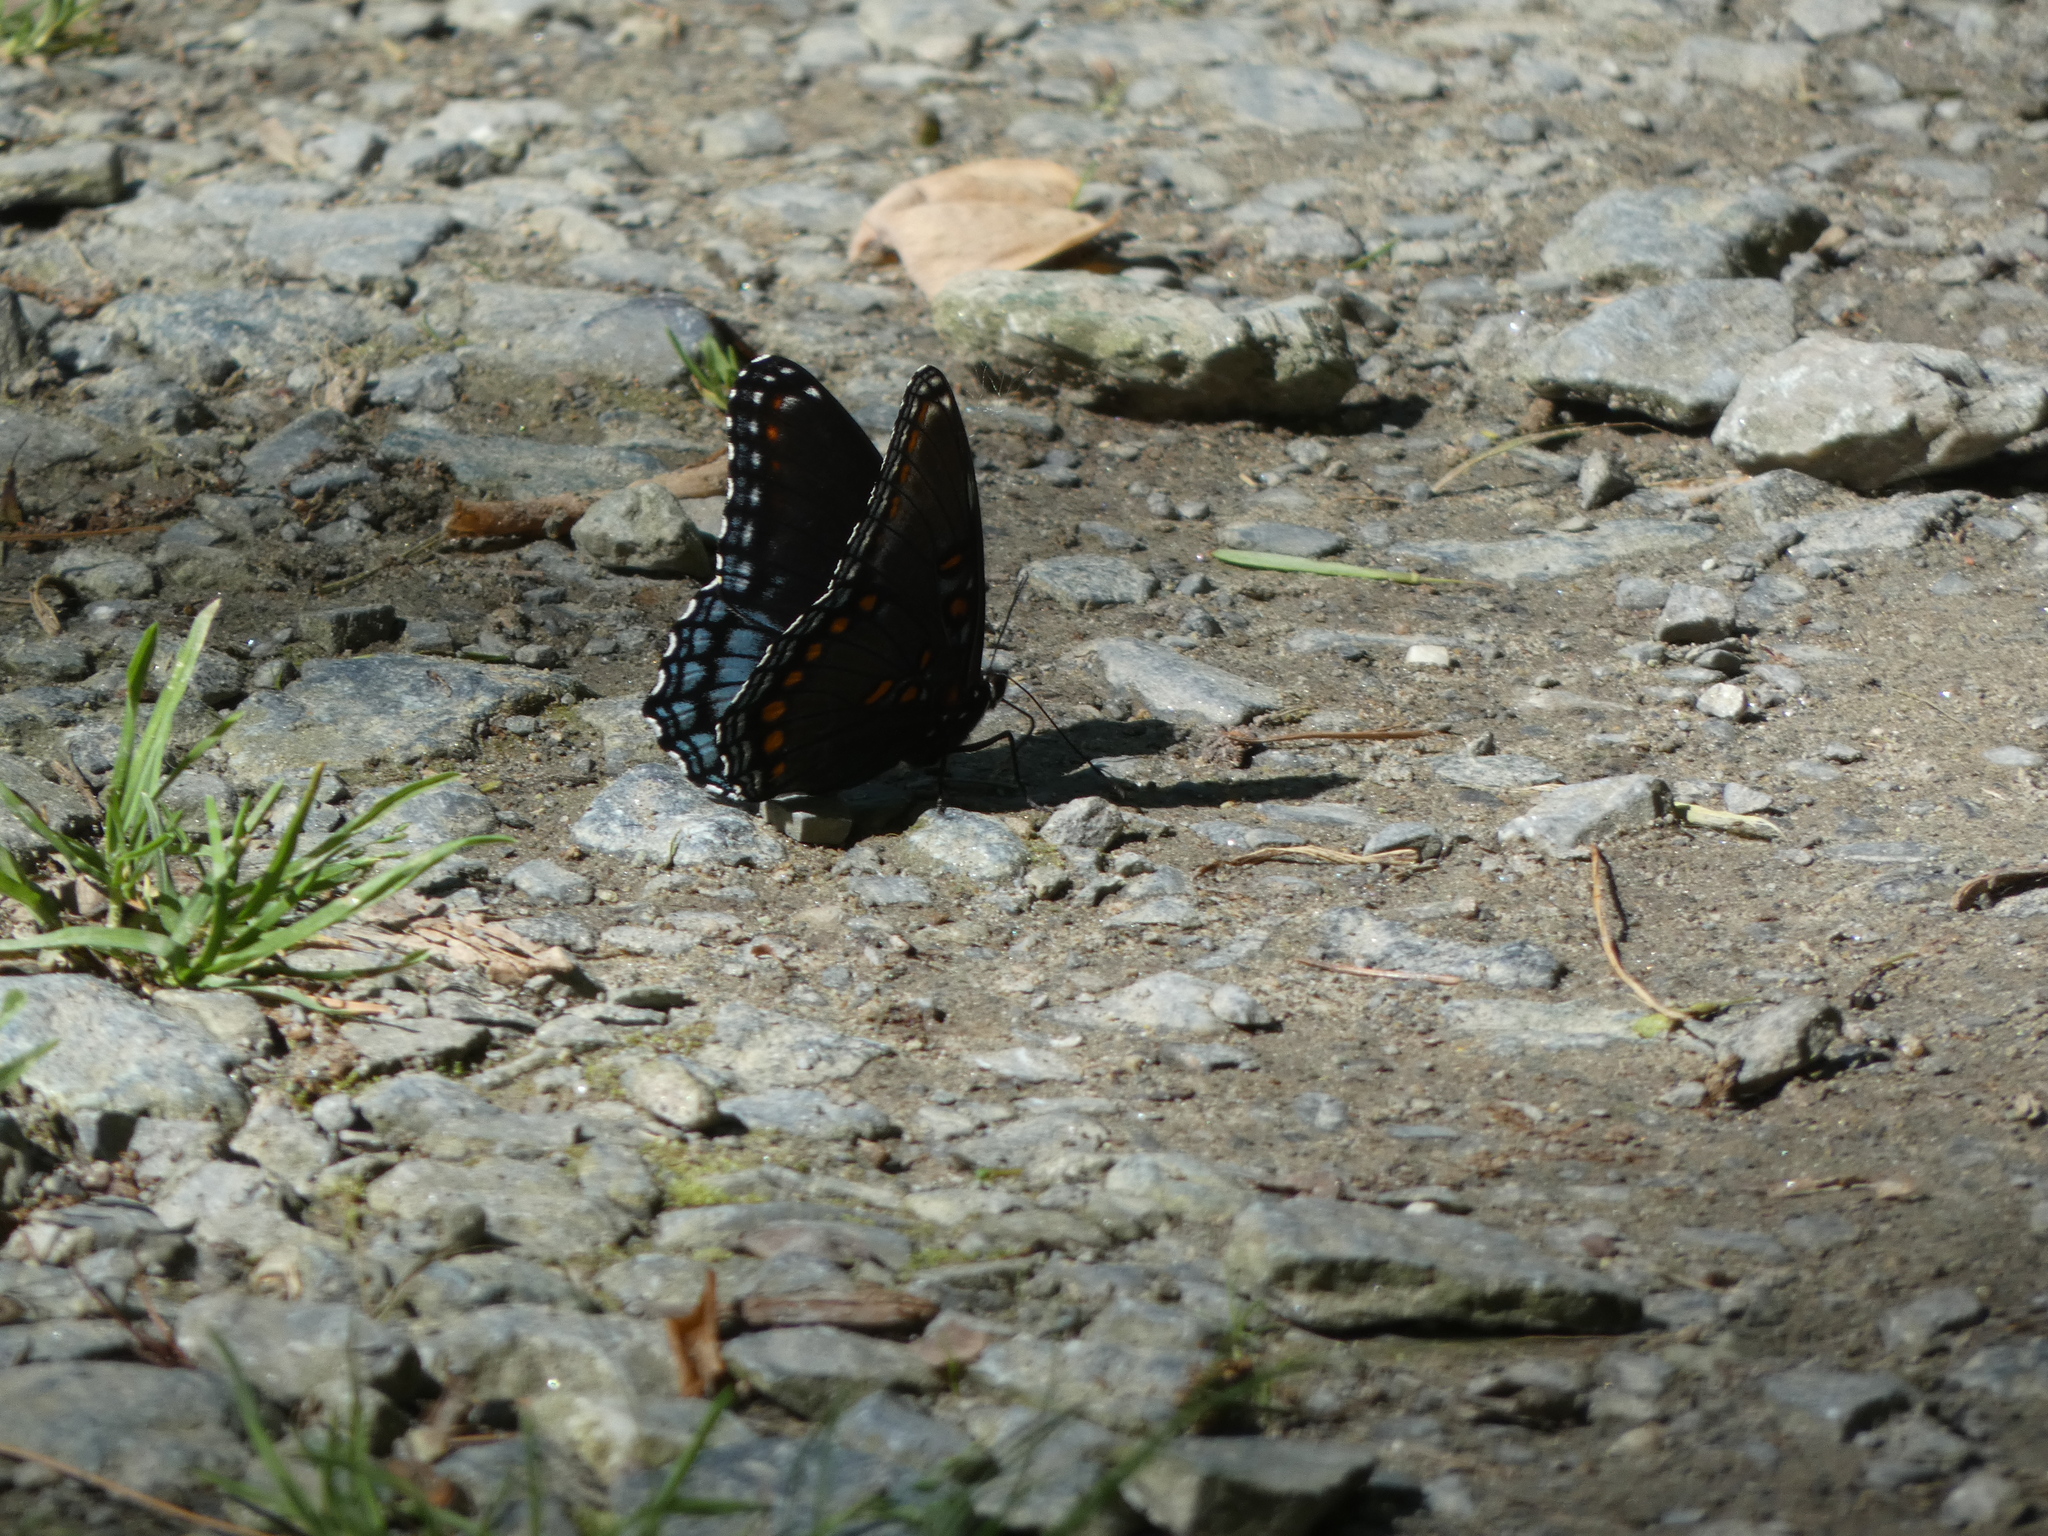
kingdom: Animalia
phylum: Arthropoda
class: Insecta
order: Lepidoptera
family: Nymphalidae
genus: Limenitis
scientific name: Limenitis astyanax
